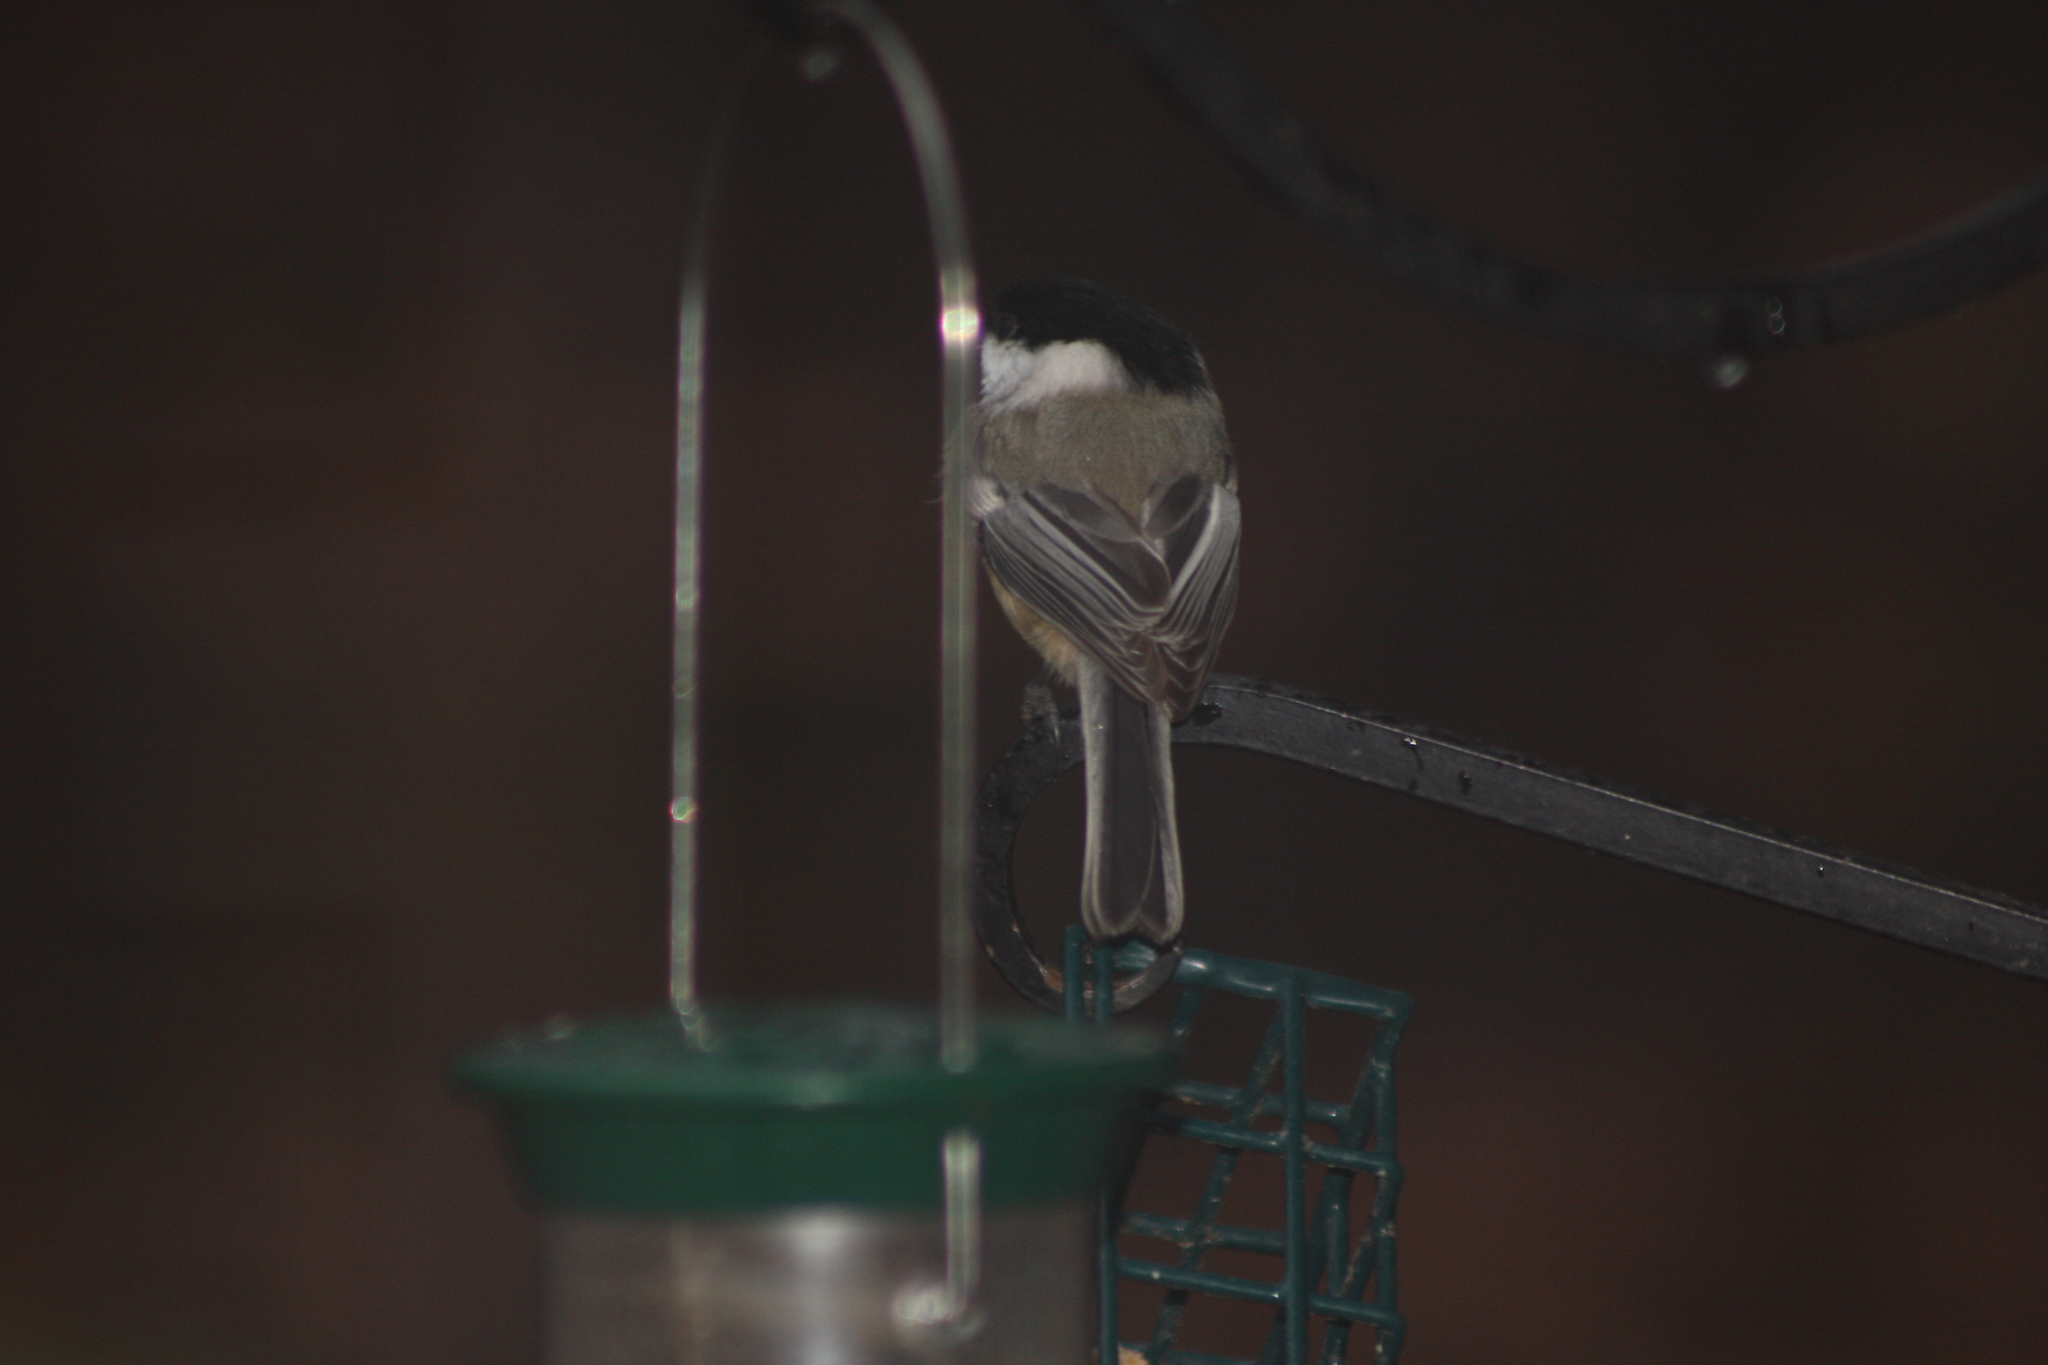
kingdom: Animalia
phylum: Chordata
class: Aves
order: Passeriformes
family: Paridae
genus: Poecile
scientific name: Poecile atricapillus
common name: Black-capped chickadee
